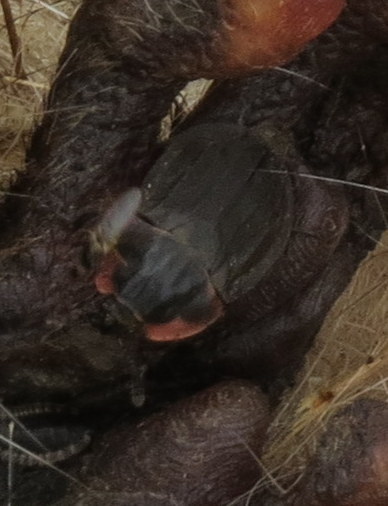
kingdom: Animalia
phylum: Arthropoda
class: Insecta
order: Coleoptera
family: Staphylinidae
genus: Oiceoptoma
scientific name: Oiceoptoma noveboracense
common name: Margined carrion beetle
